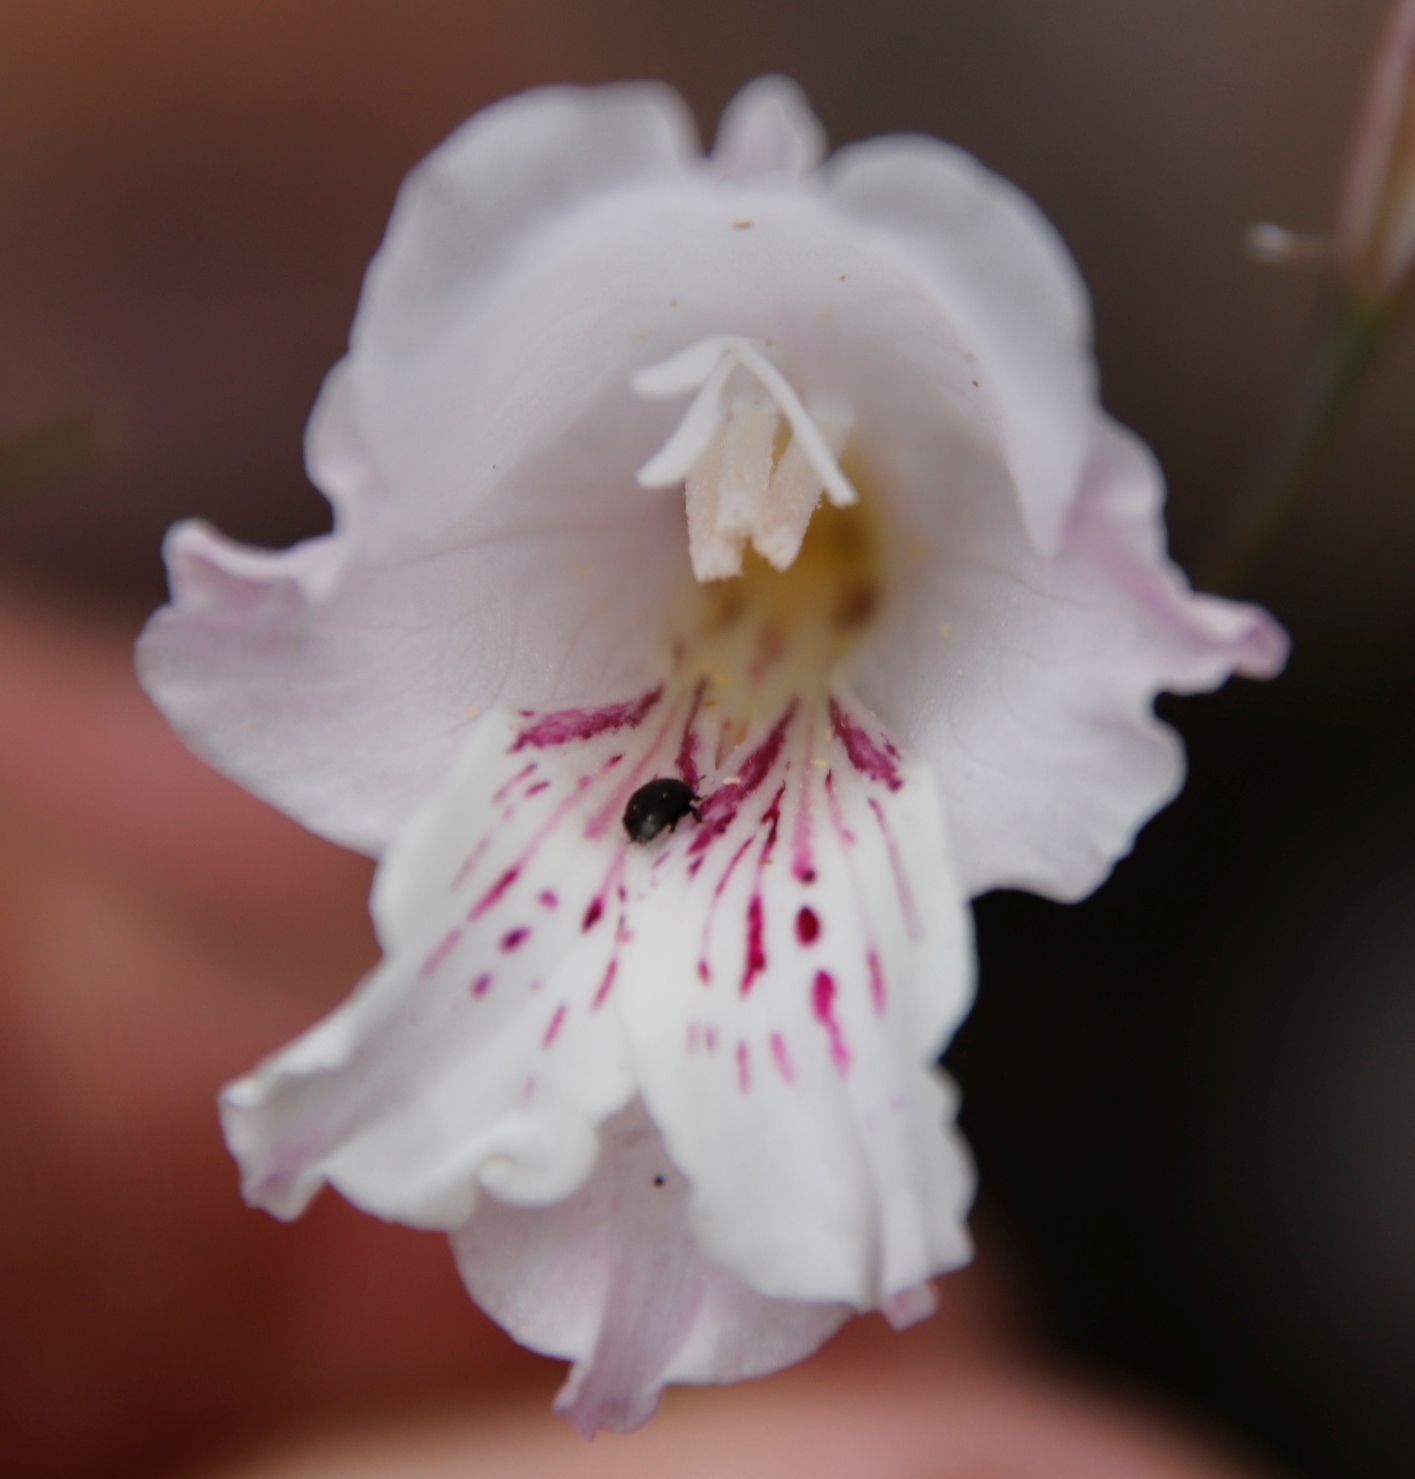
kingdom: Plantae
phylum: Tracheophyta
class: Liliopsida
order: Asparagales
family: Iridaceae
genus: Gladiolus
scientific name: Gladiolus hirsutus
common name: Small pink afrikaner
